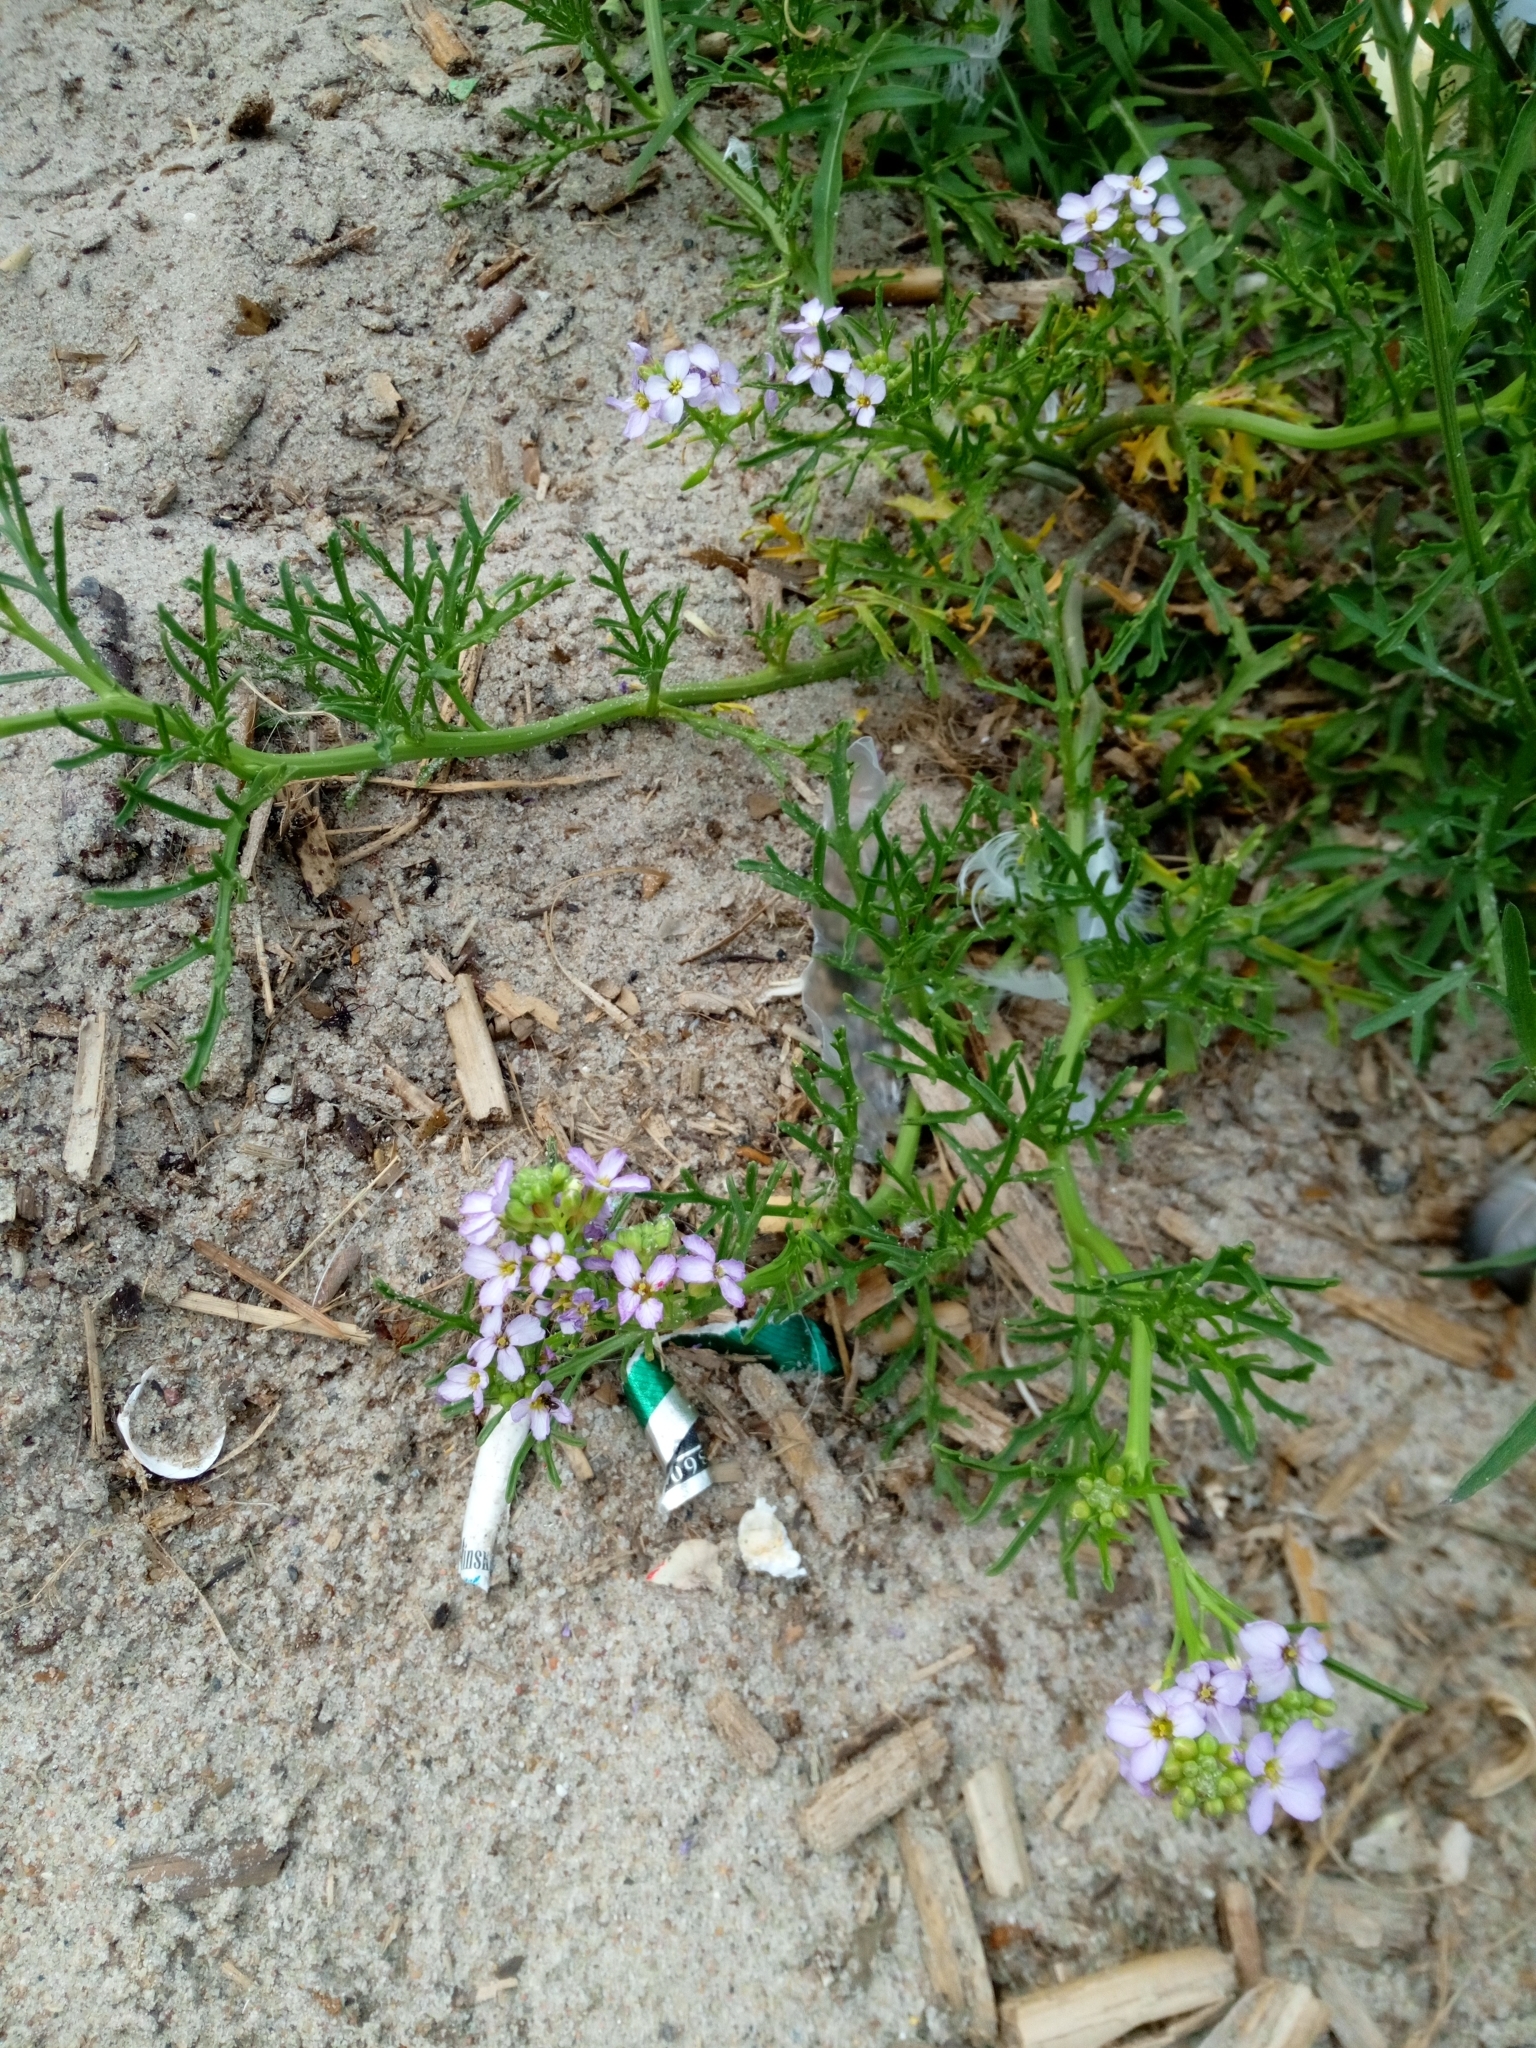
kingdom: Plantae
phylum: Tracheophyta
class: Magnoliopsida
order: Brassicales
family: Brassicaceae
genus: Cakile
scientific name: Cakile maritima
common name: Sea rocket
